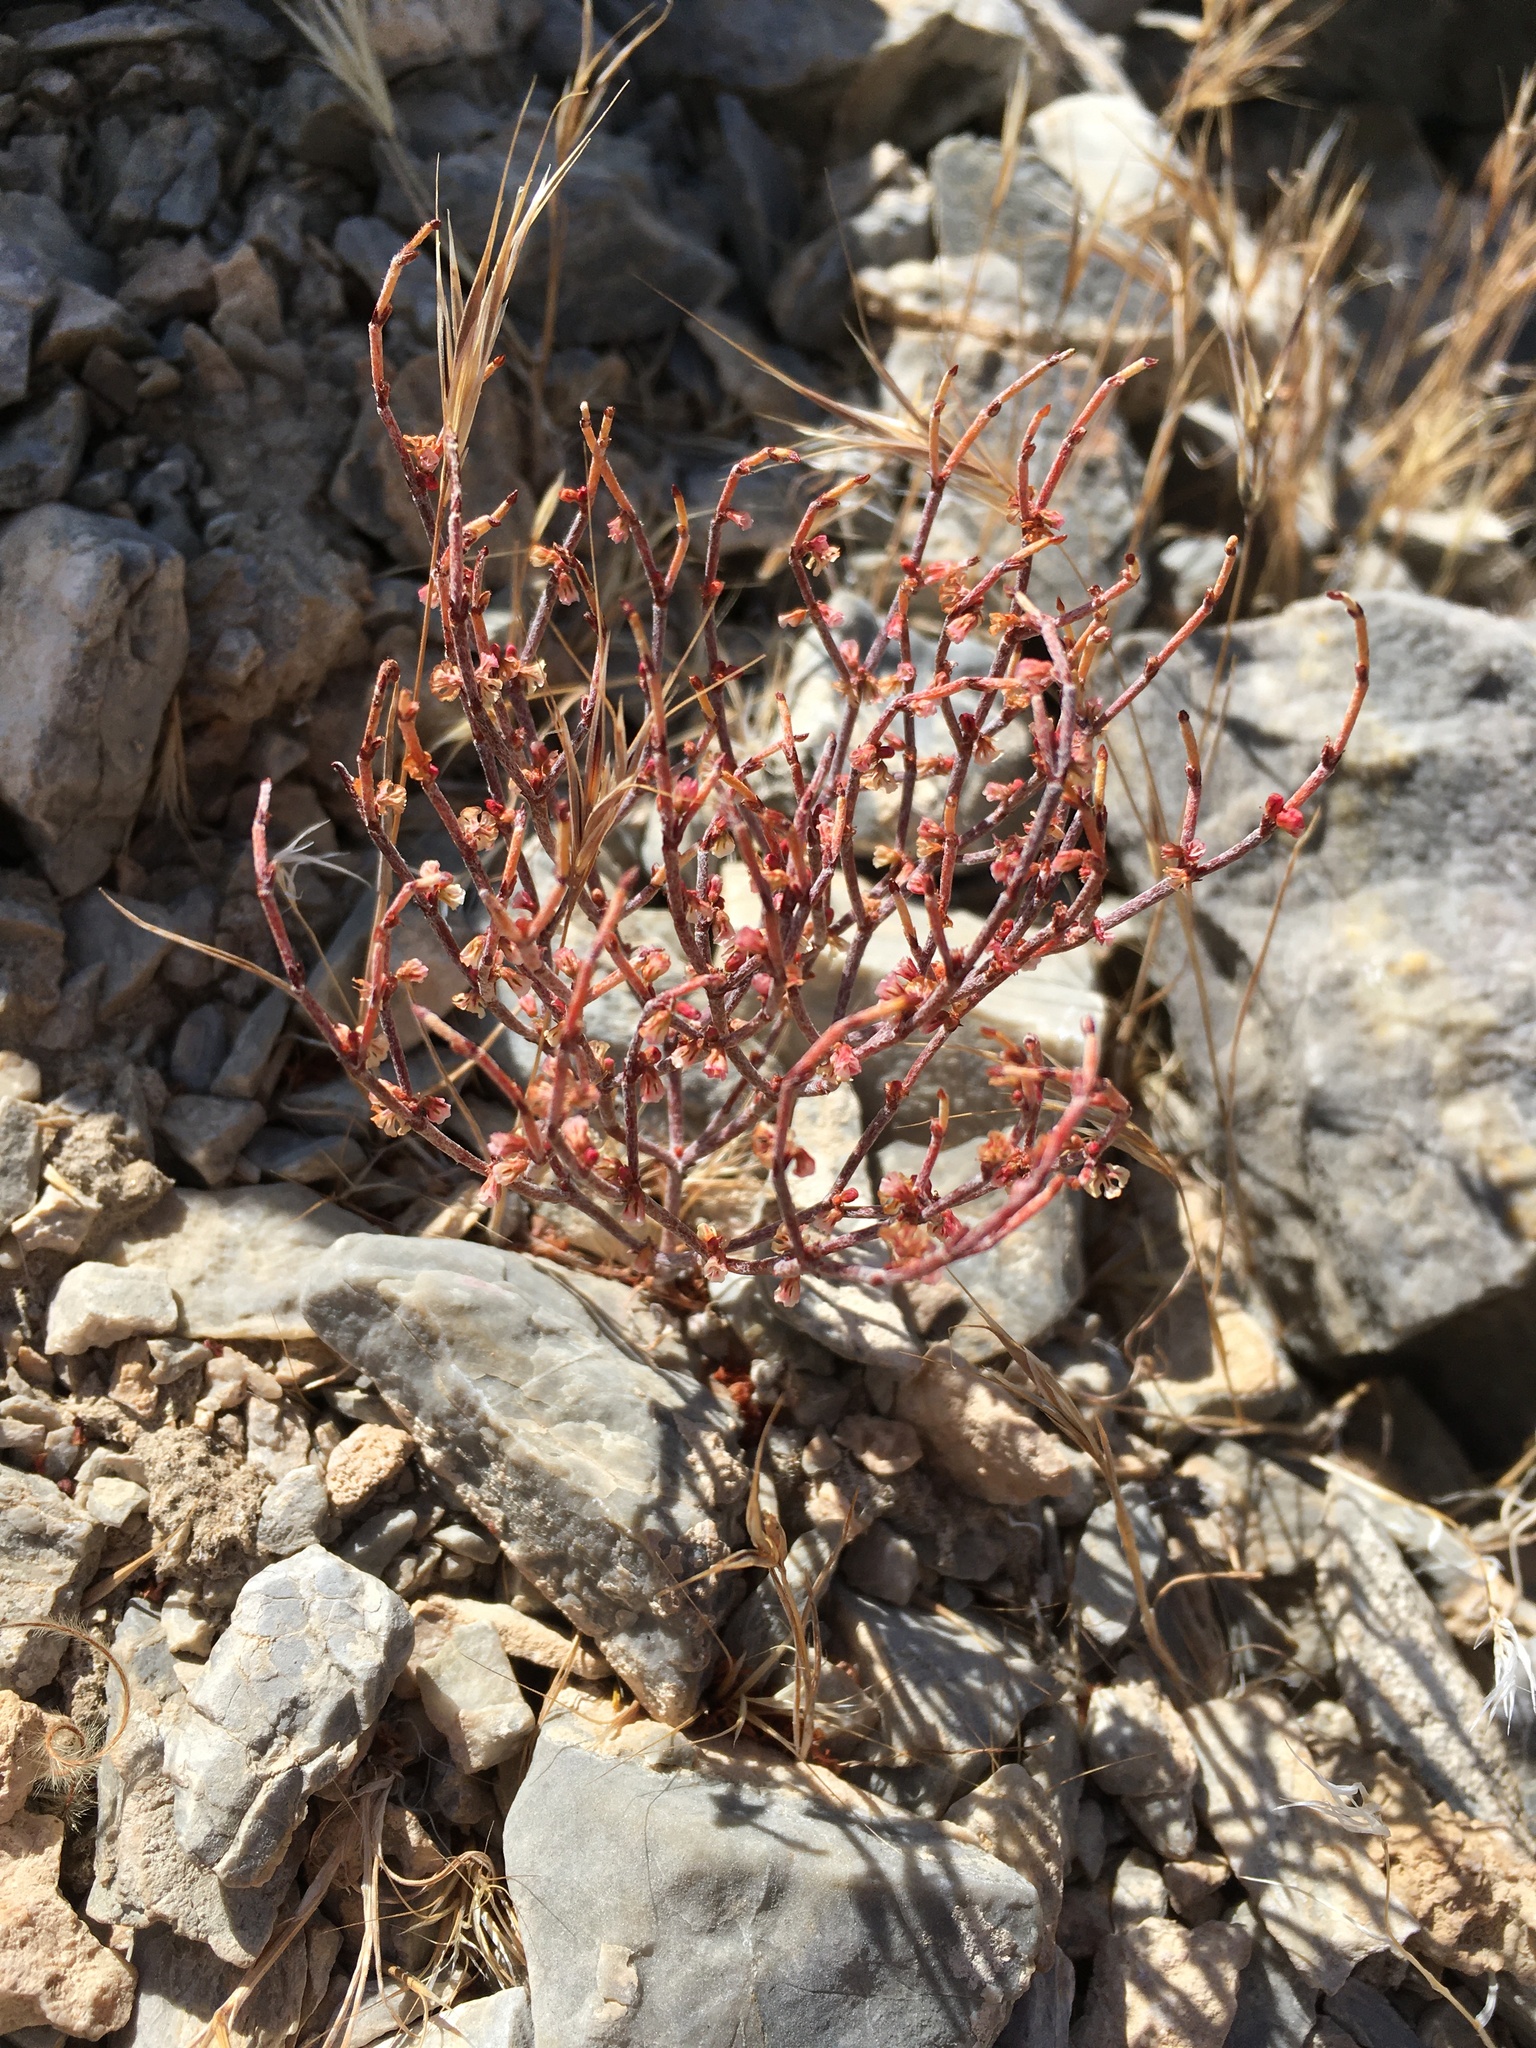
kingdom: Plantae
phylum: Tracheophyta
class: Magnoliopsida
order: Caryophyllales
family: Polygonaceae
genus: Eriogonum
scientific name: Eriogonum nidularium
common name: Bird's-nest wild buckwheat
